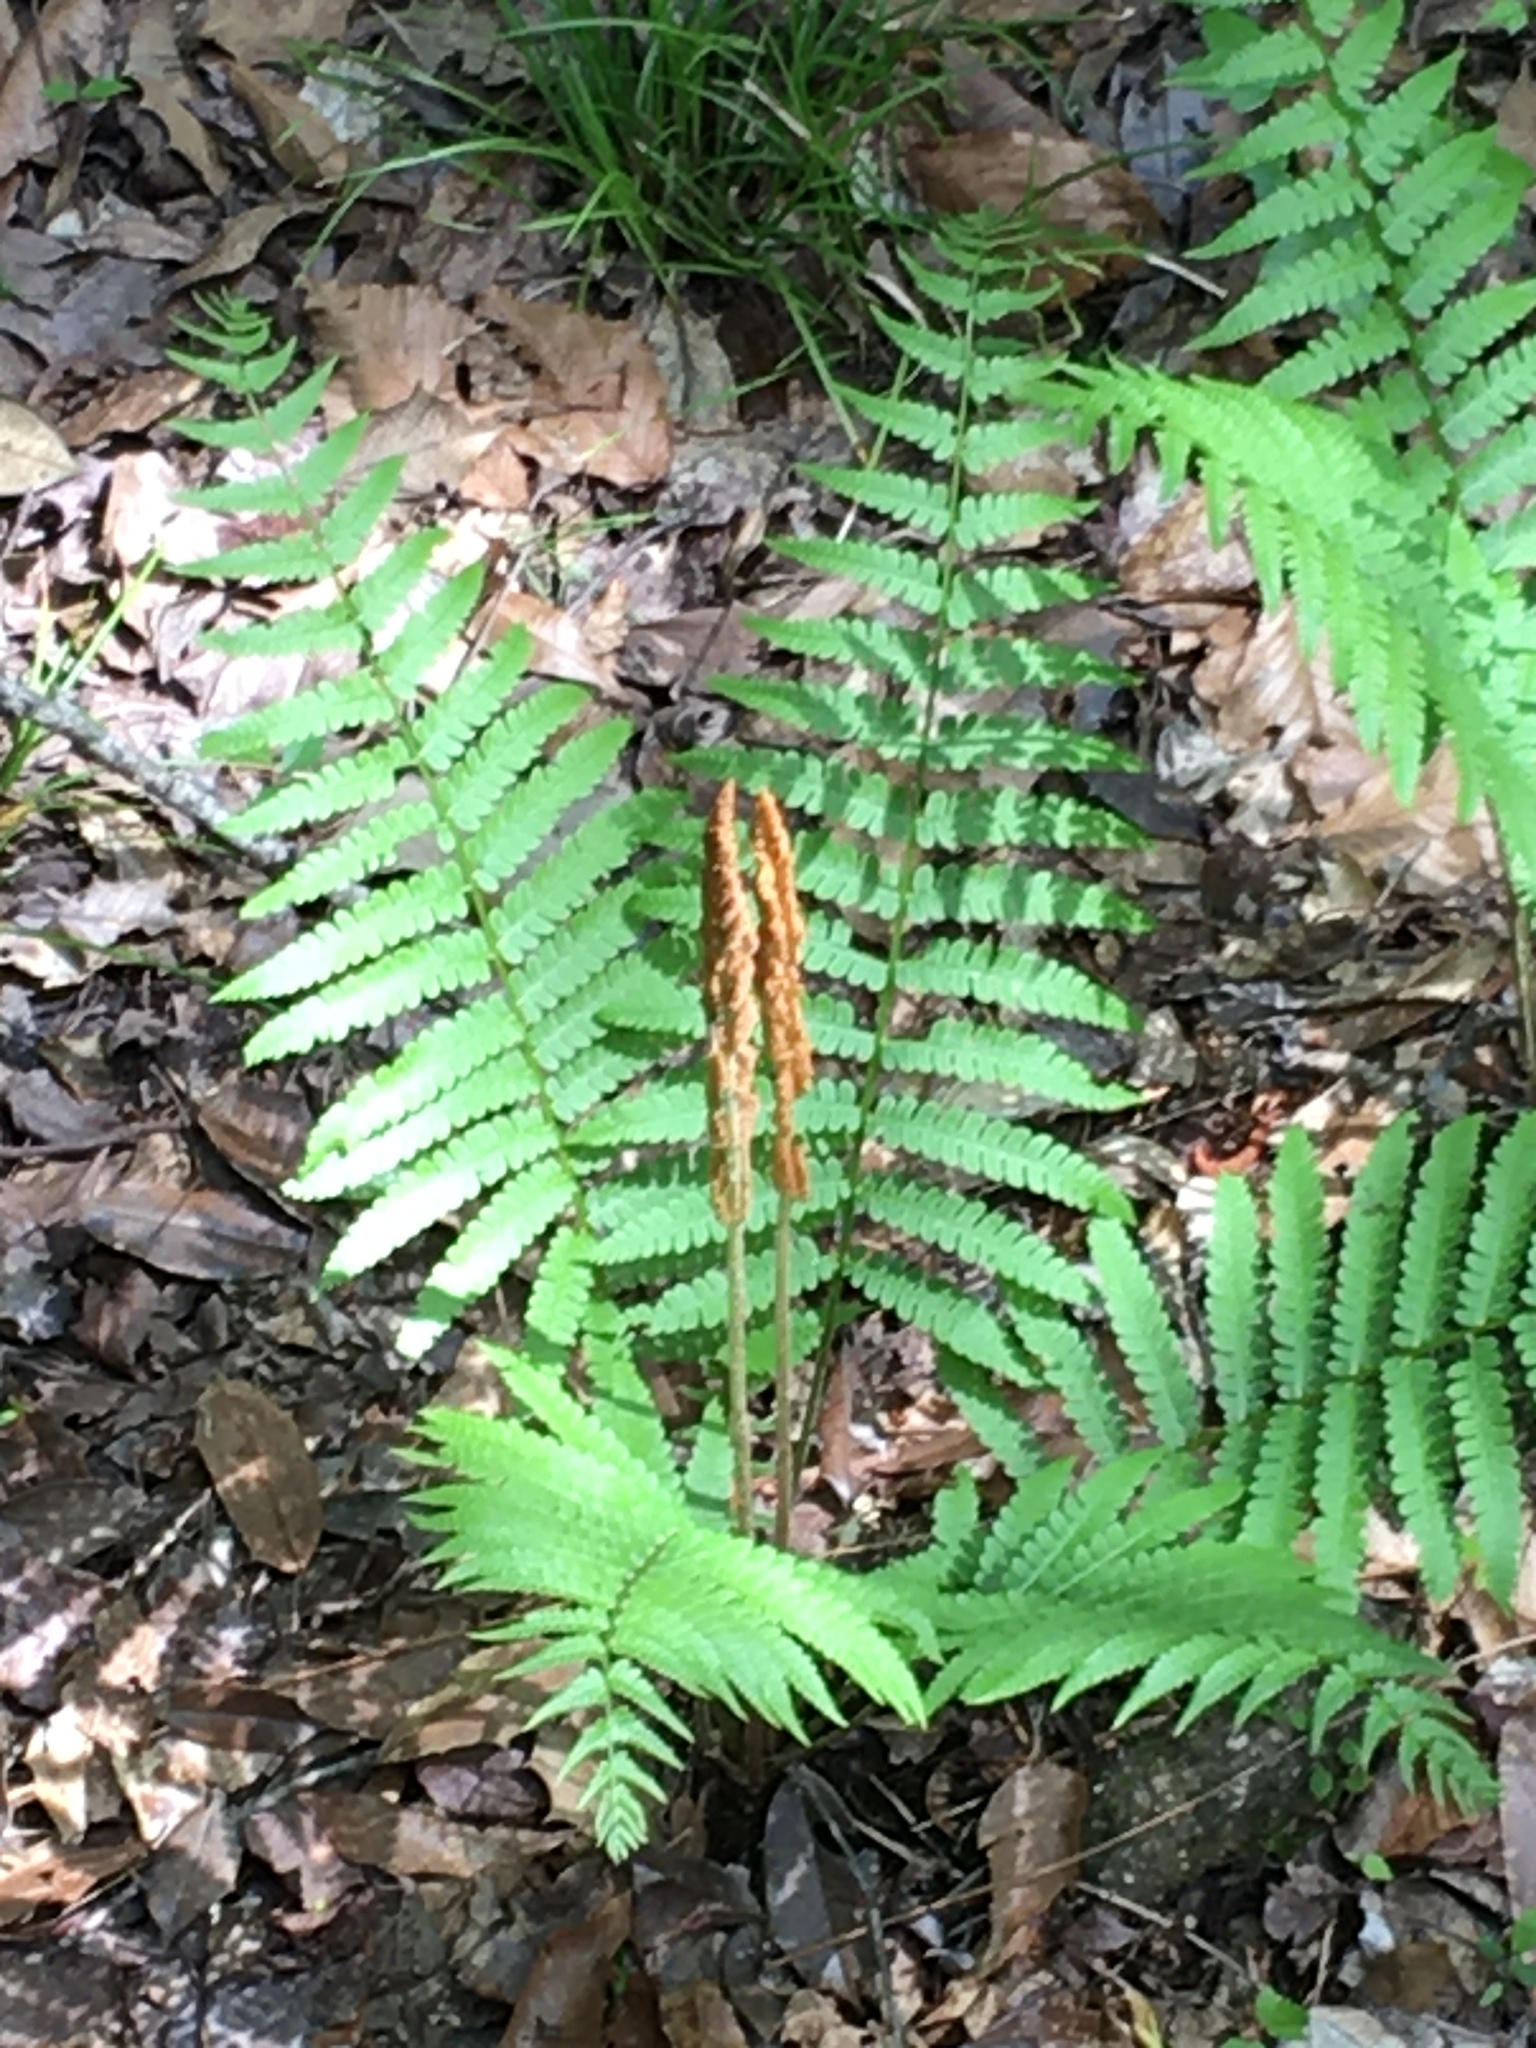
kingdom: Plantae
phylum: Tracheophyta
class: Polypodiopsida
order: Osmundales
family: Osmundaceae
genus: Osmundastrum
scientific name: Osmundastrum cinnamomeum
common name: Cinnamon fern
